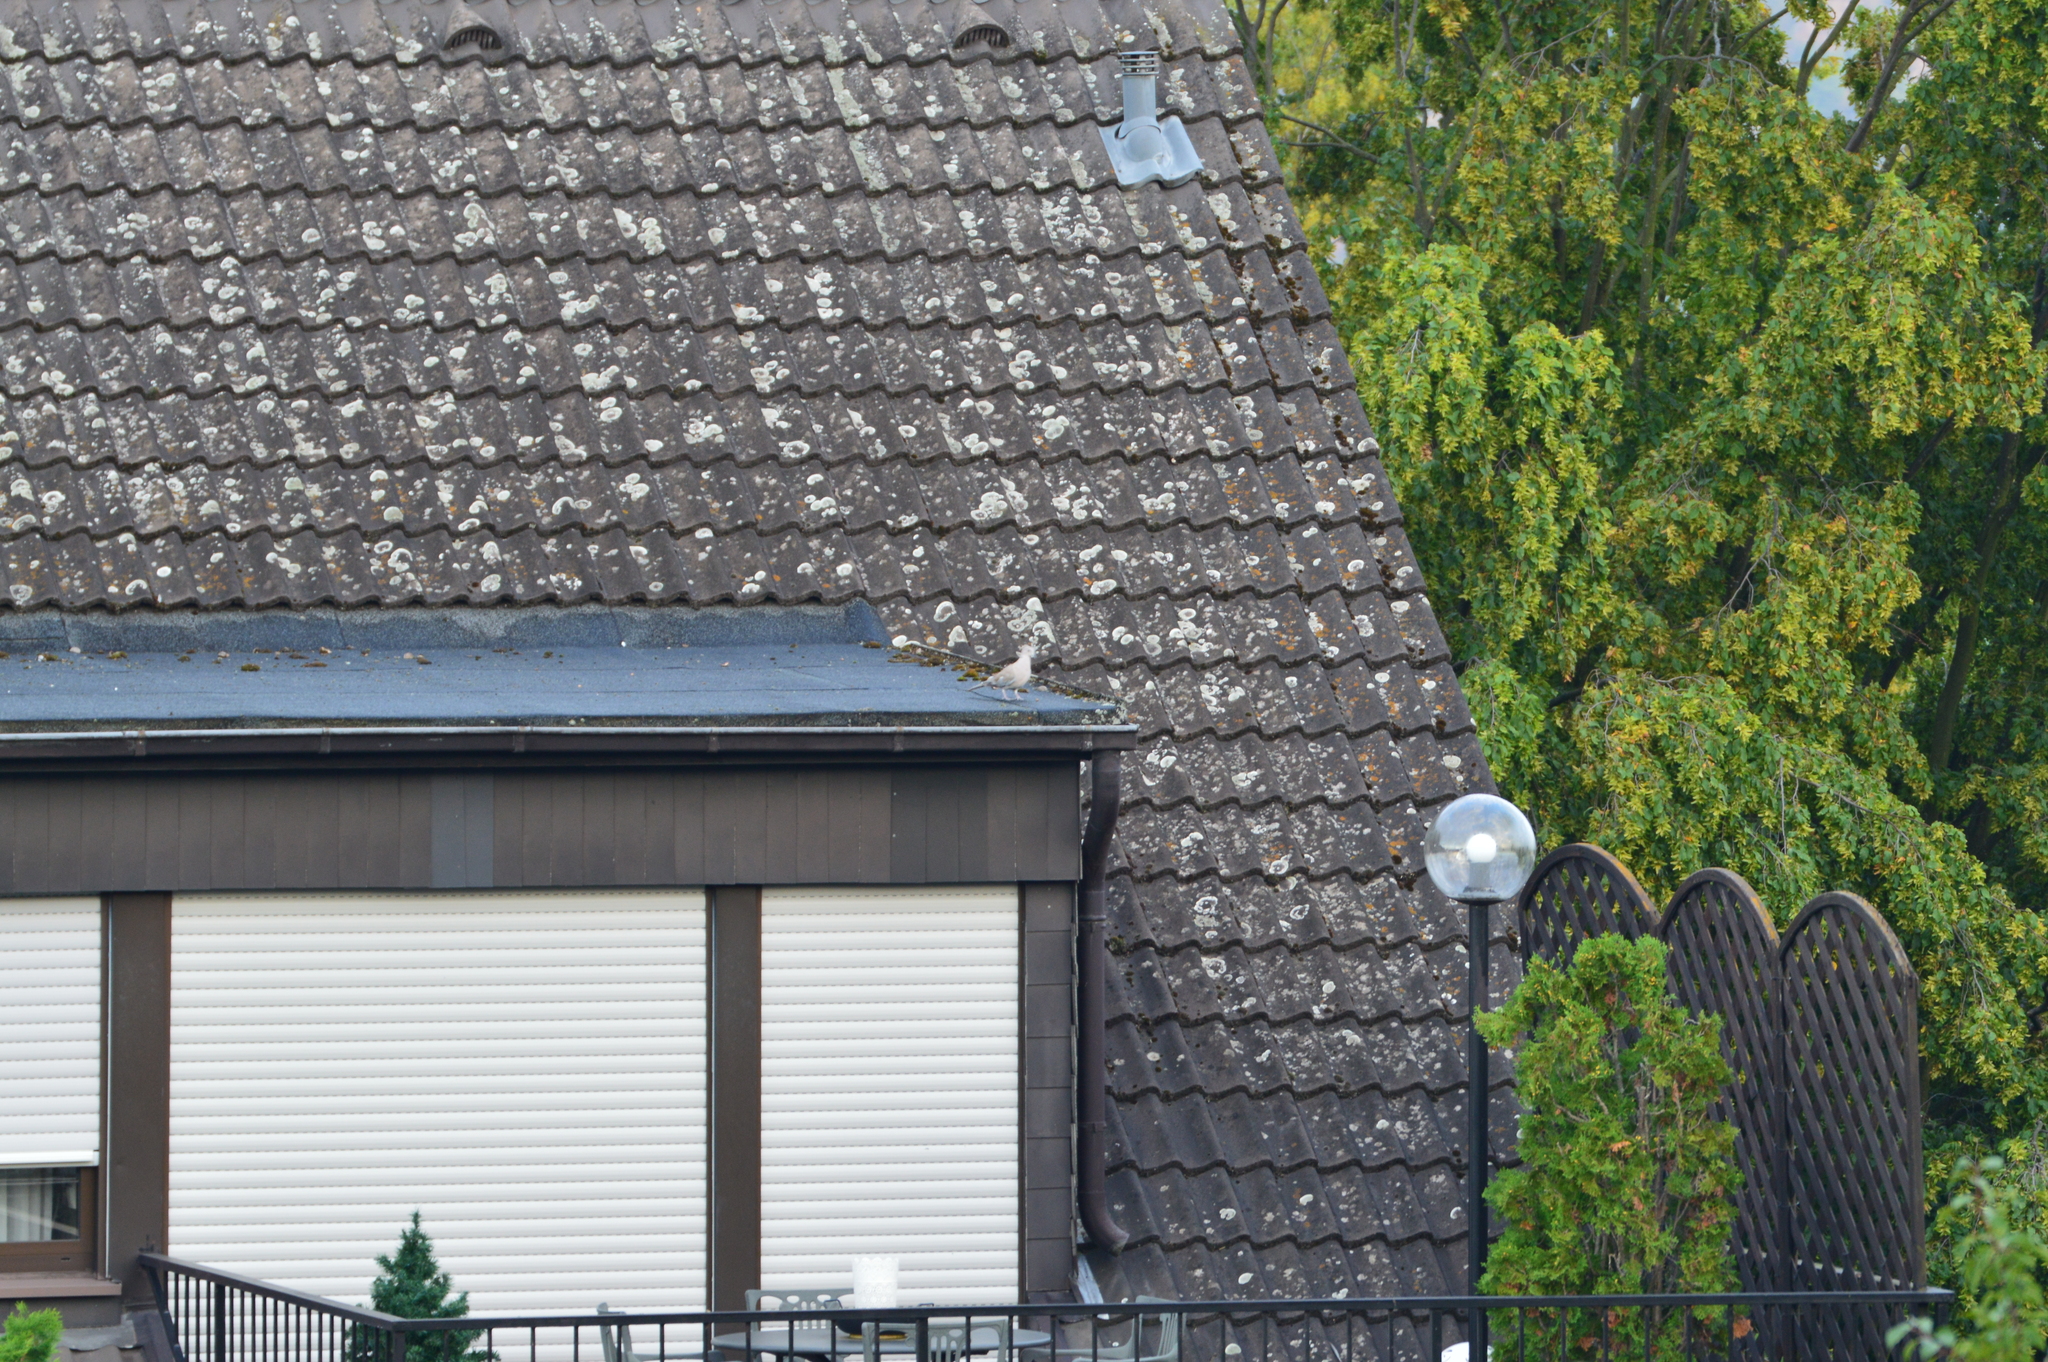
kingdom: Animalia
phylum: Chordata
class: Aves
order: Columbiformes
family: Columbidae
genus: Streptopelia
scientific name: Streptopelia decaocto
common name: Eurasian collared dove
